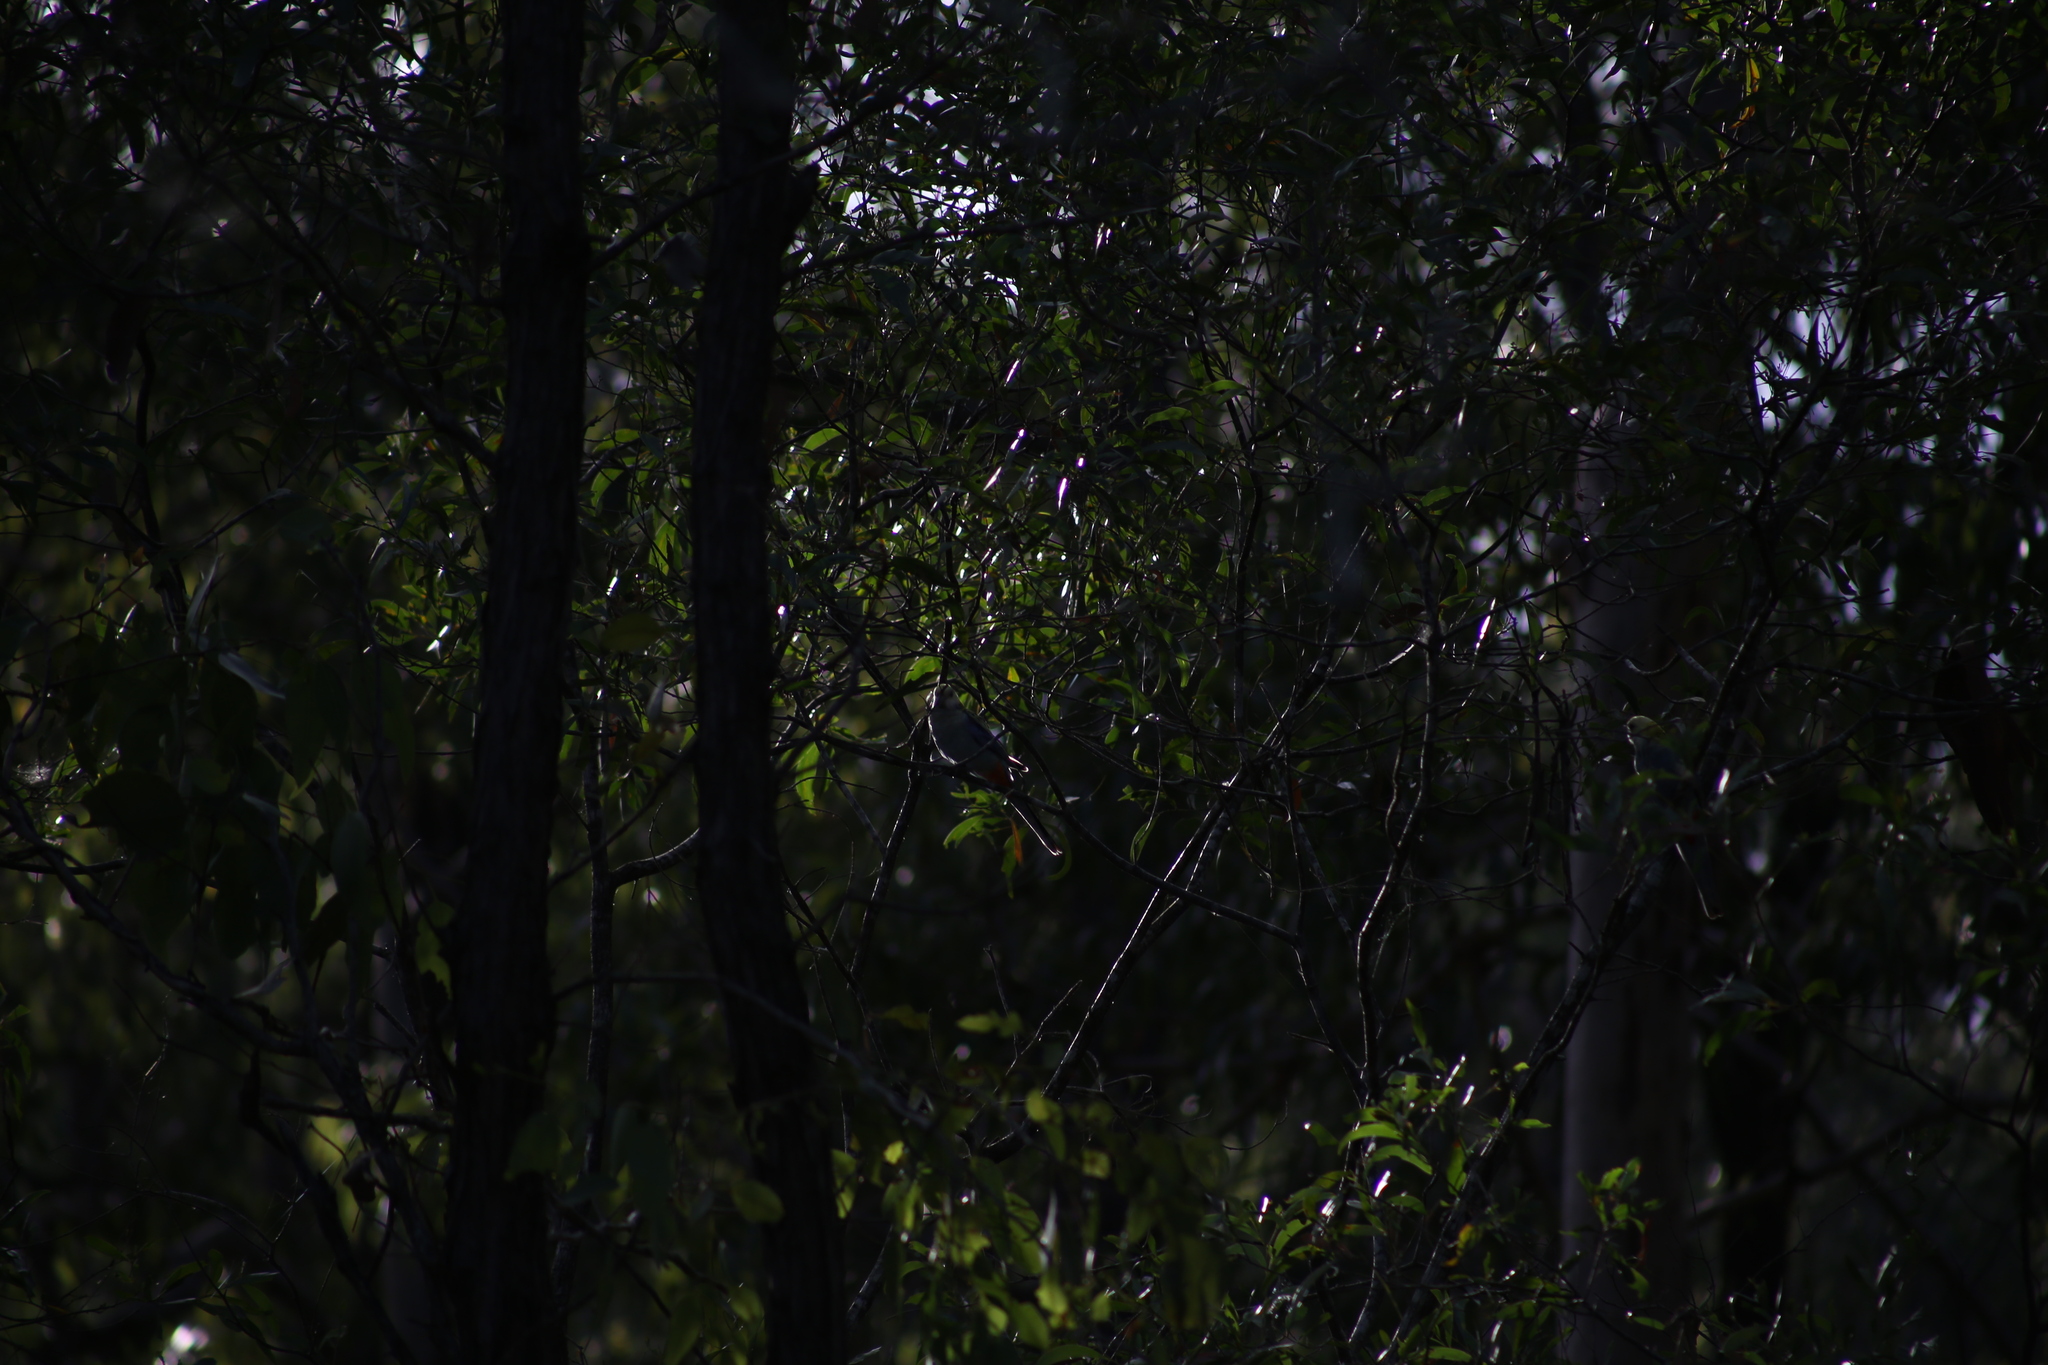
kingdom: Animalia
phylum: Chordata
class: Aves
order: Psittaciformes
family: Psittacidae
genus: Platycercus
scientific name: Platycercus adscitus
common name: Pale-headed rosella
